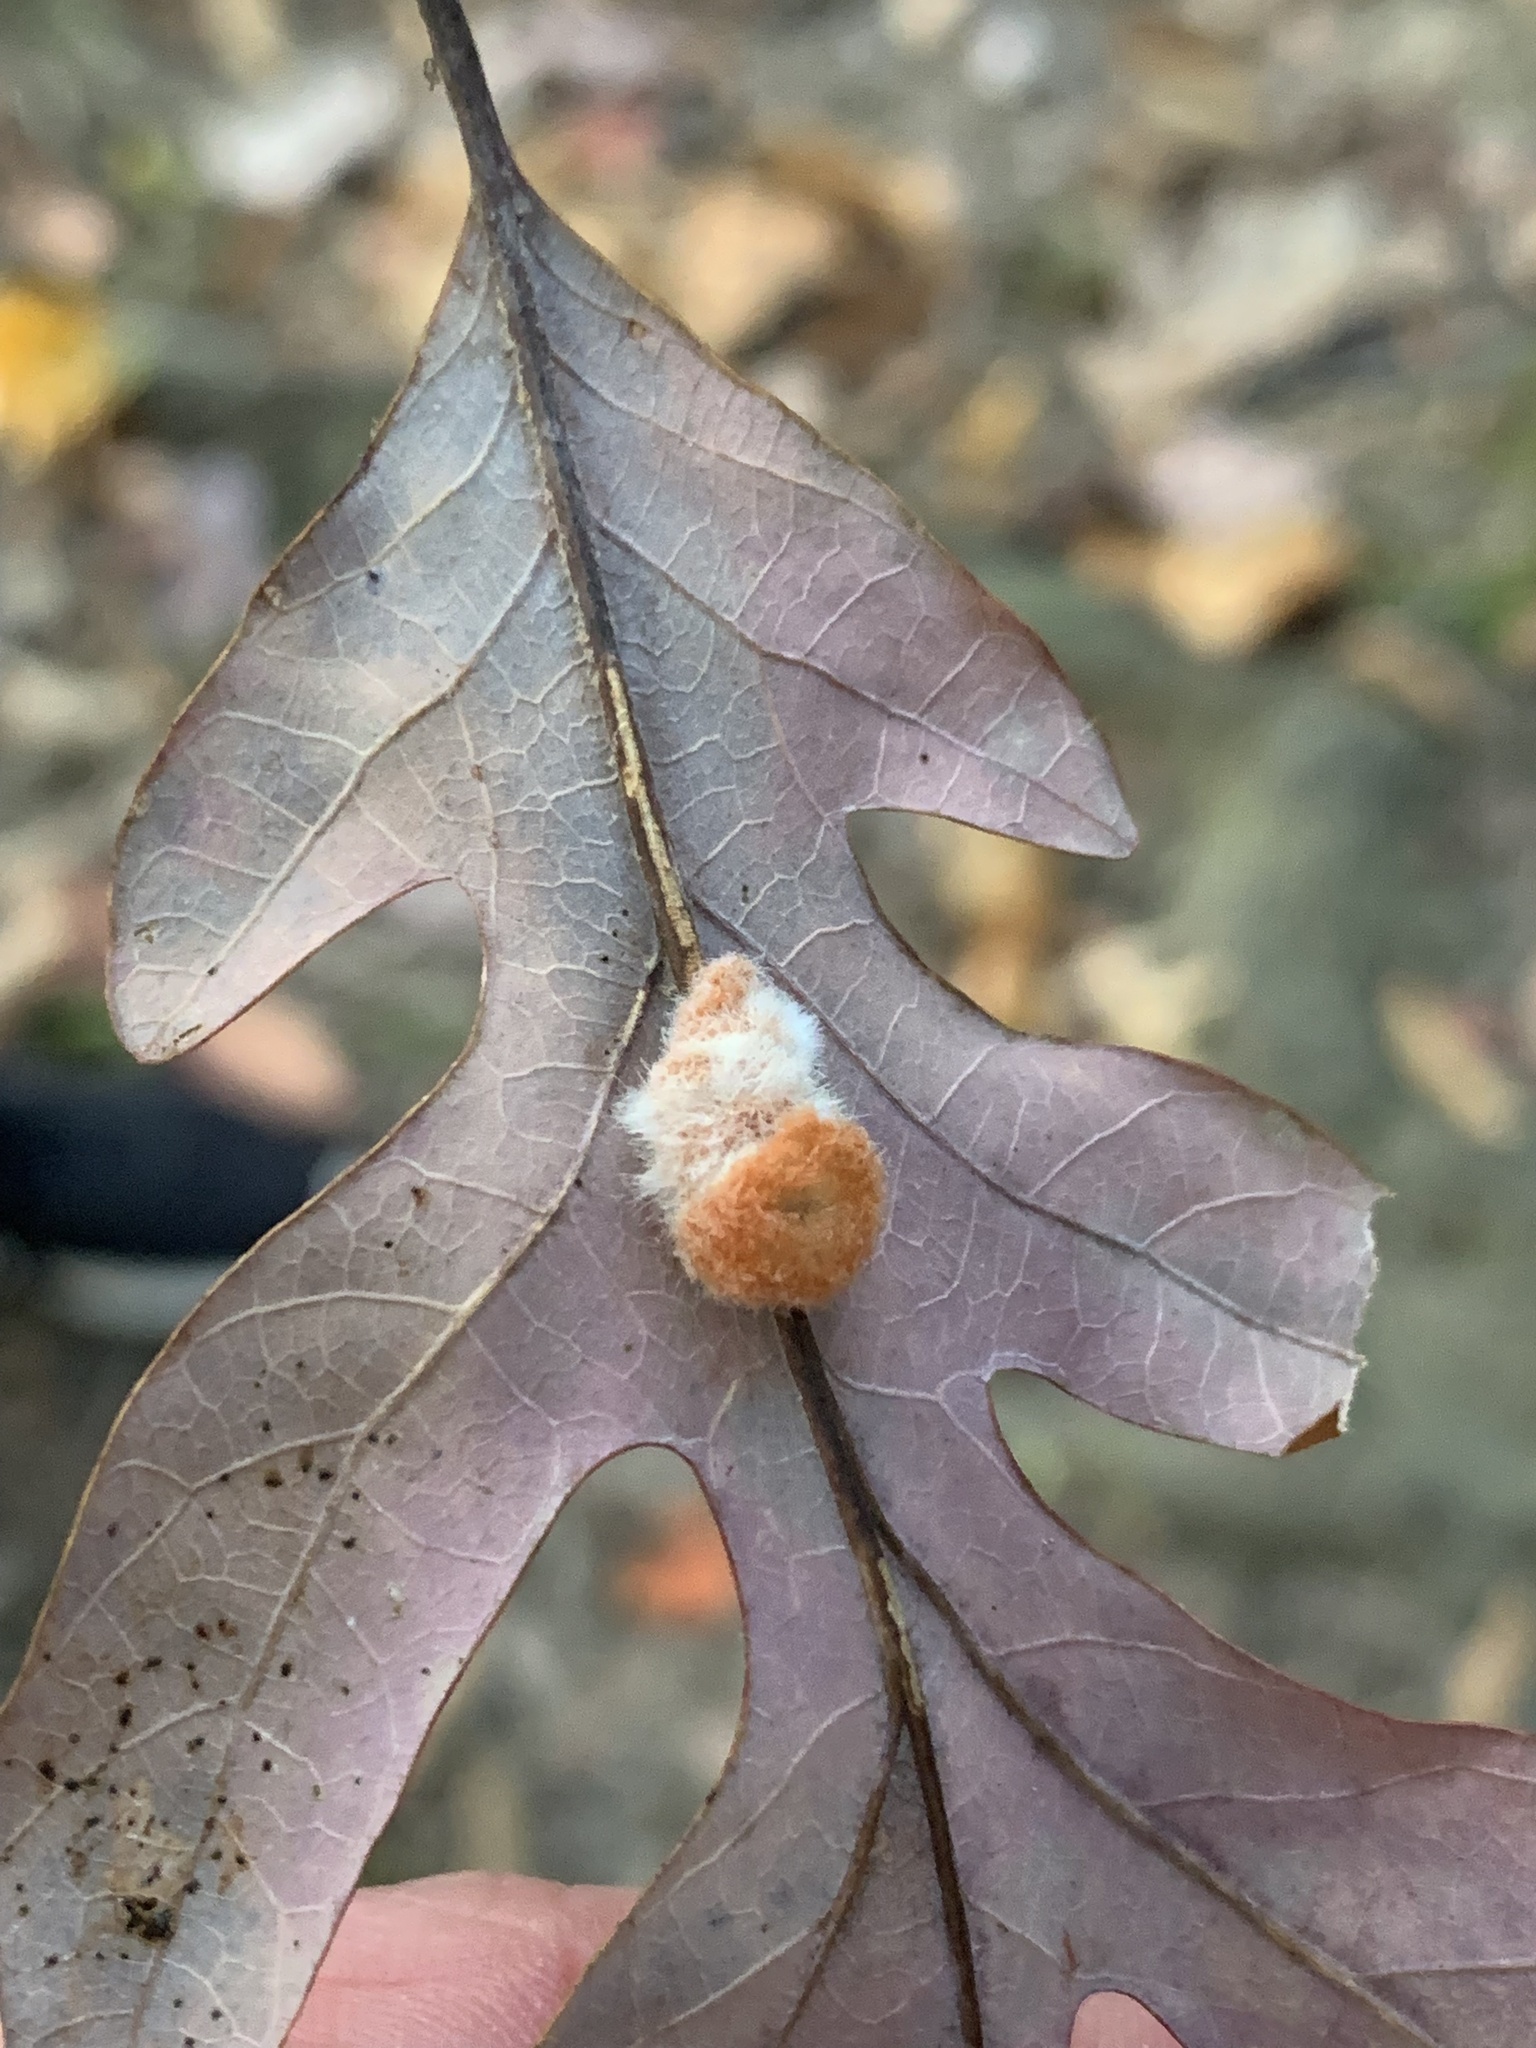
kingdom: Animalia
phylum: Arthropoda
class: Insecta
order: Hymenoptera
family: Cynipidae
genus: Andricus
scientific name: Andricus quercusflocci
